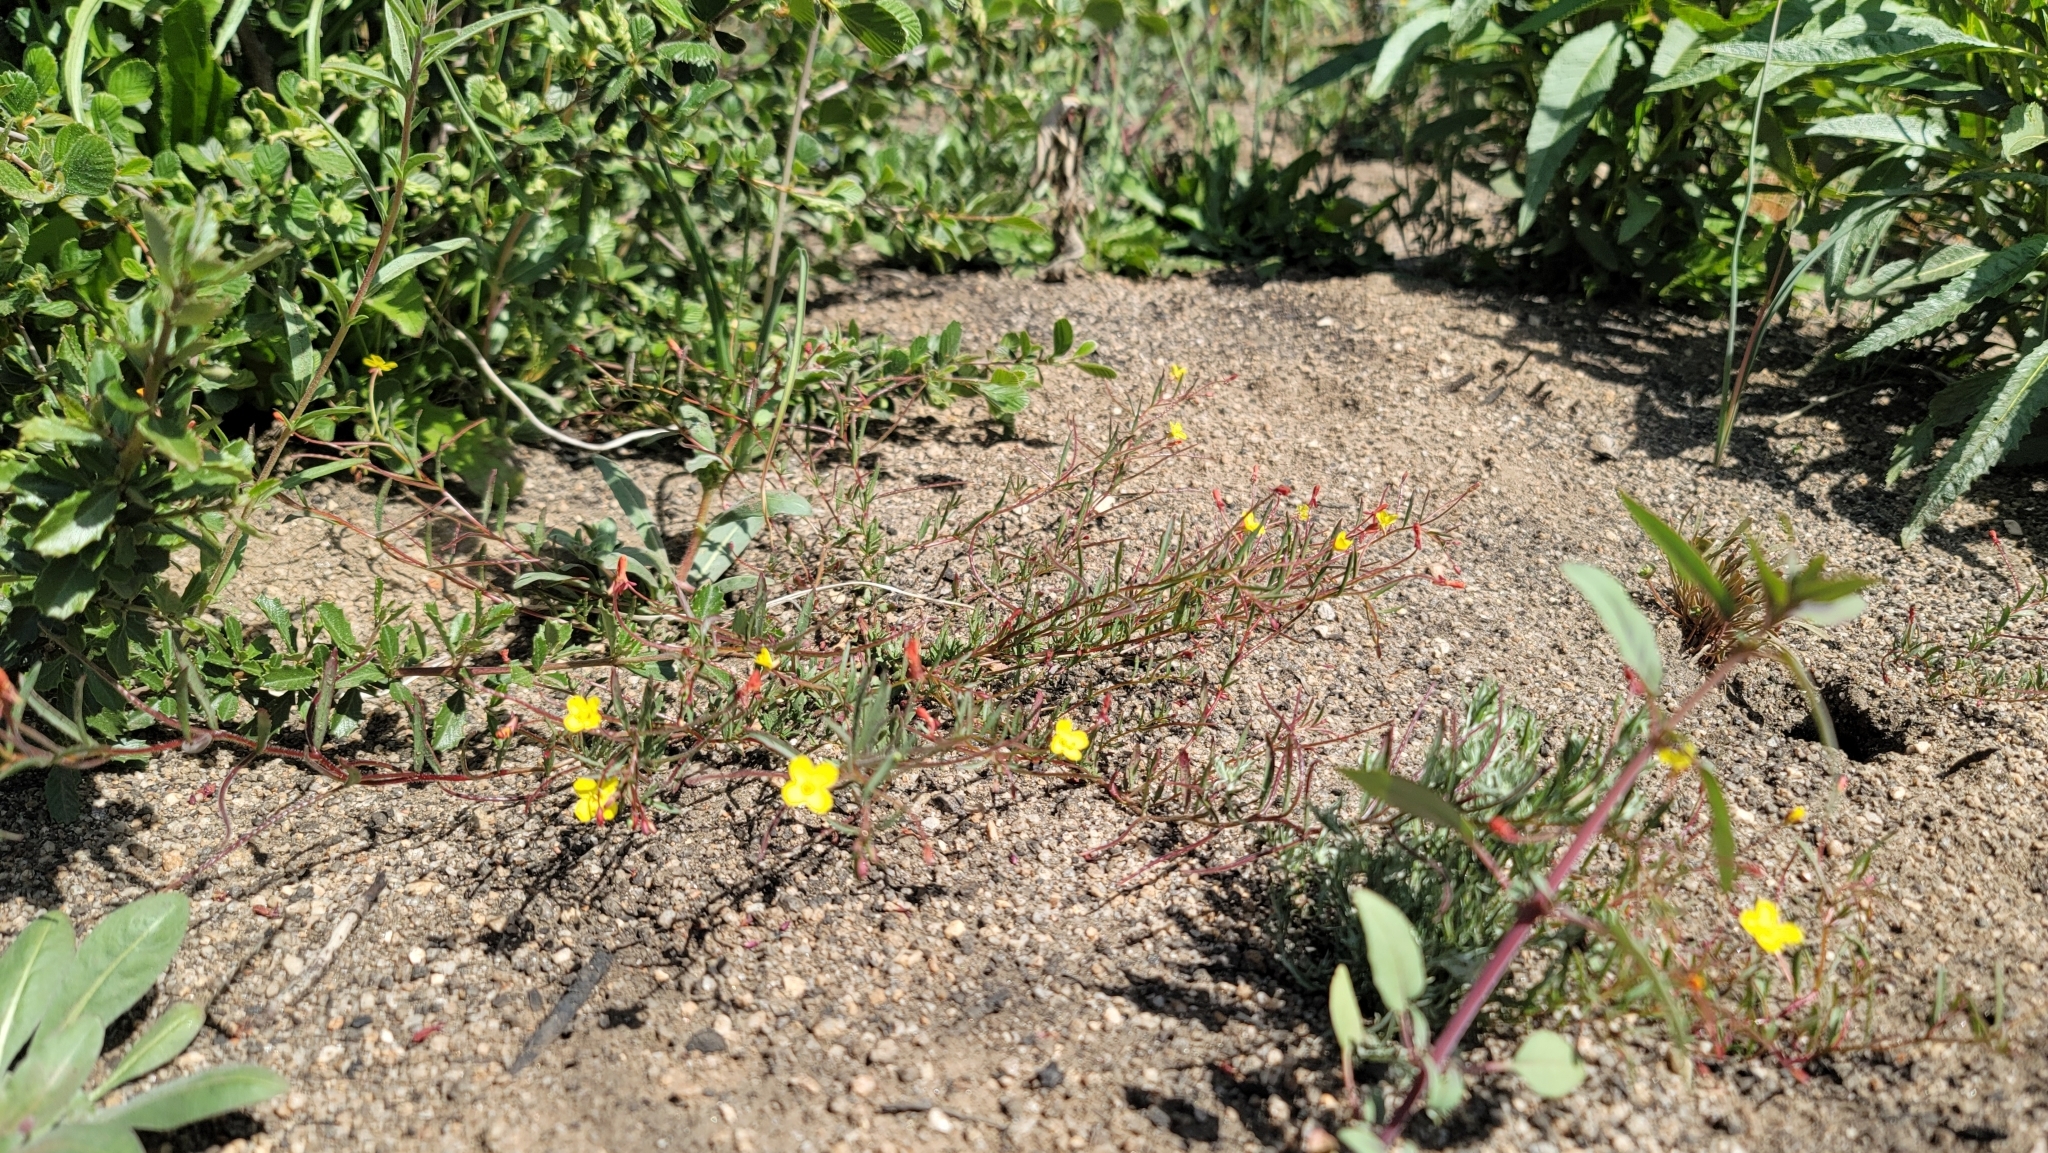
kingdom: Plantae
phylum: Tracheophyta
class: Magnoliopsida
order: Myrtales
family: Onagraceae
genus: Camissonia
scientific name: Camissonia sierrae
